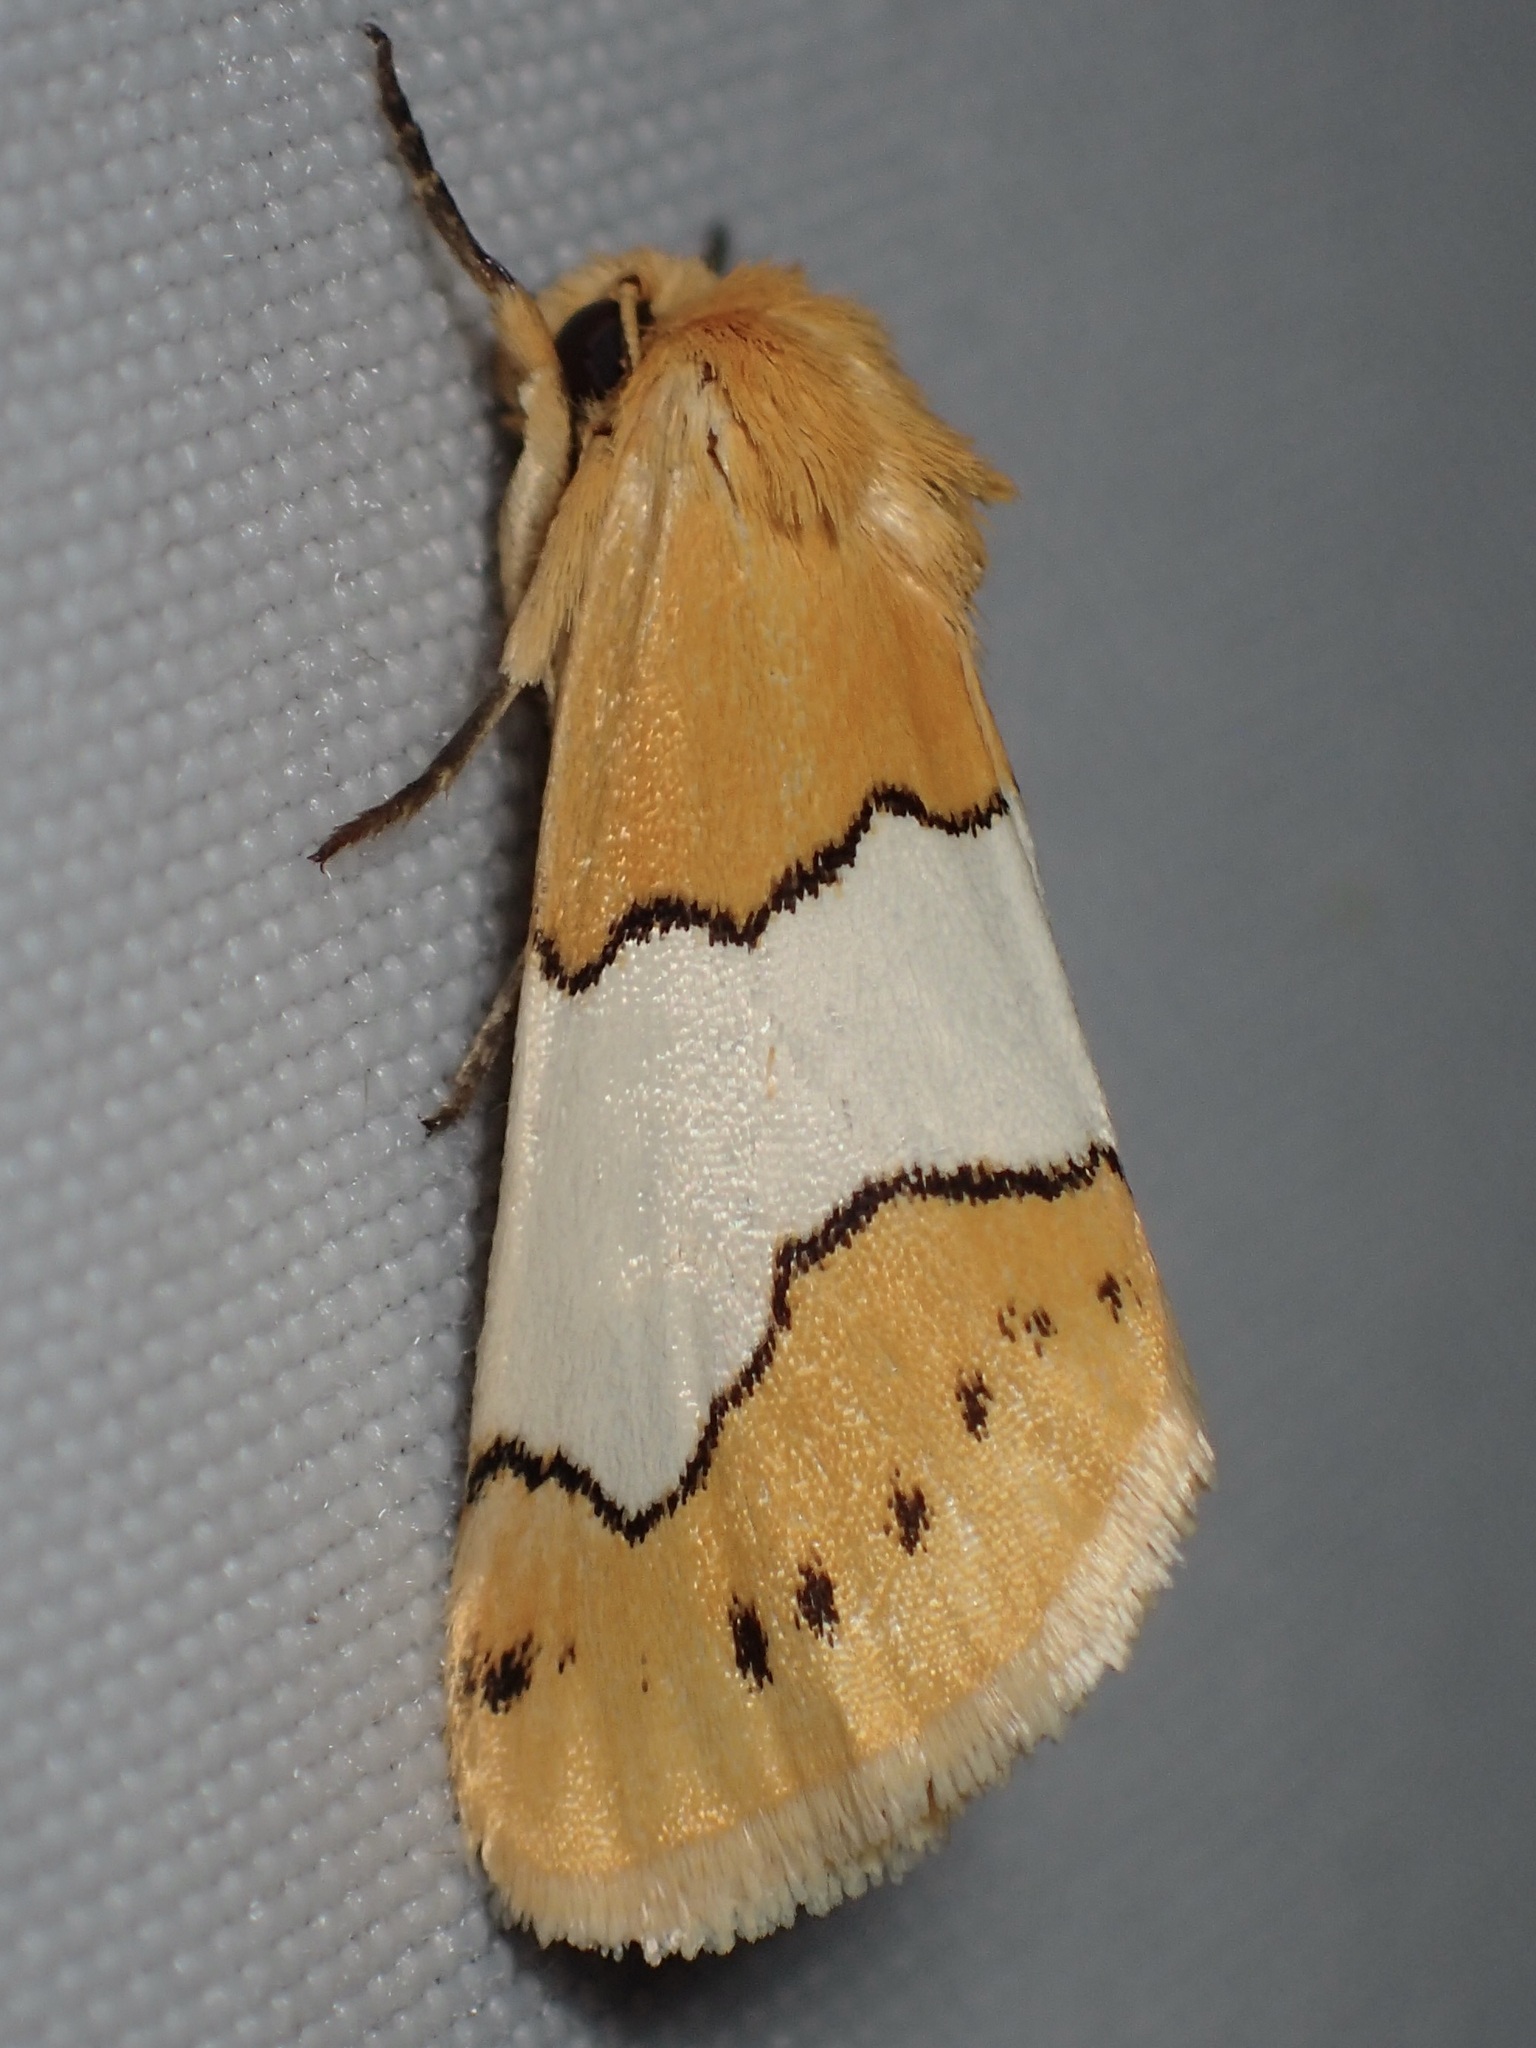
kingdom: Animalia
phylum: Arthropoda
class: Insecta
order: Lepidoptera
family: Noctuidae
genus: Lineostriastiria
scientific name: Lineostriastiria hachita
